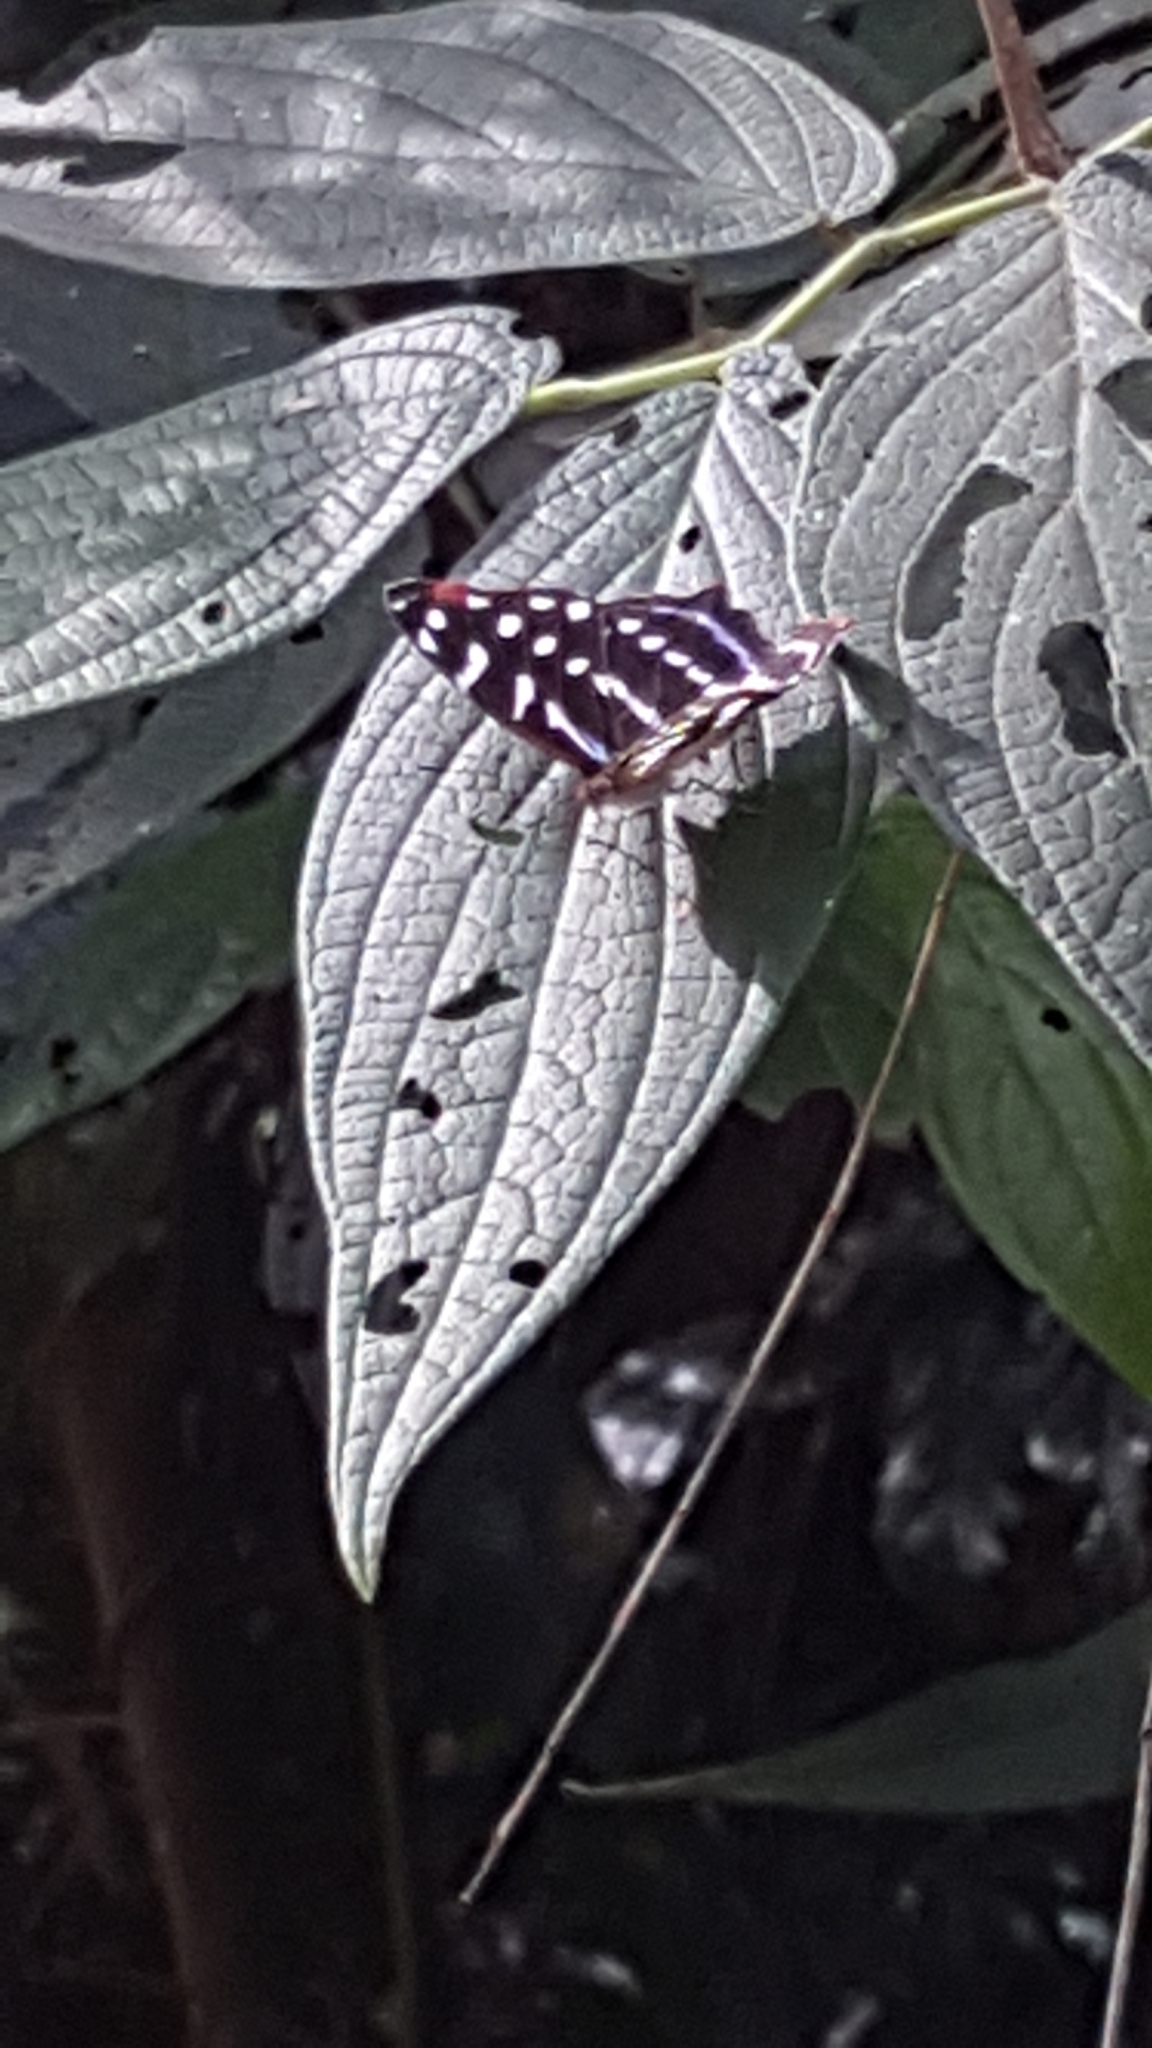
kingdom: Animalia
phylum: Arthropoda
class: Insecta
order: Lepidoptera
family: Nymphalidae
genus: Myscelia
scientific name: Myscelia orsis
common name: Orsis bluewing
